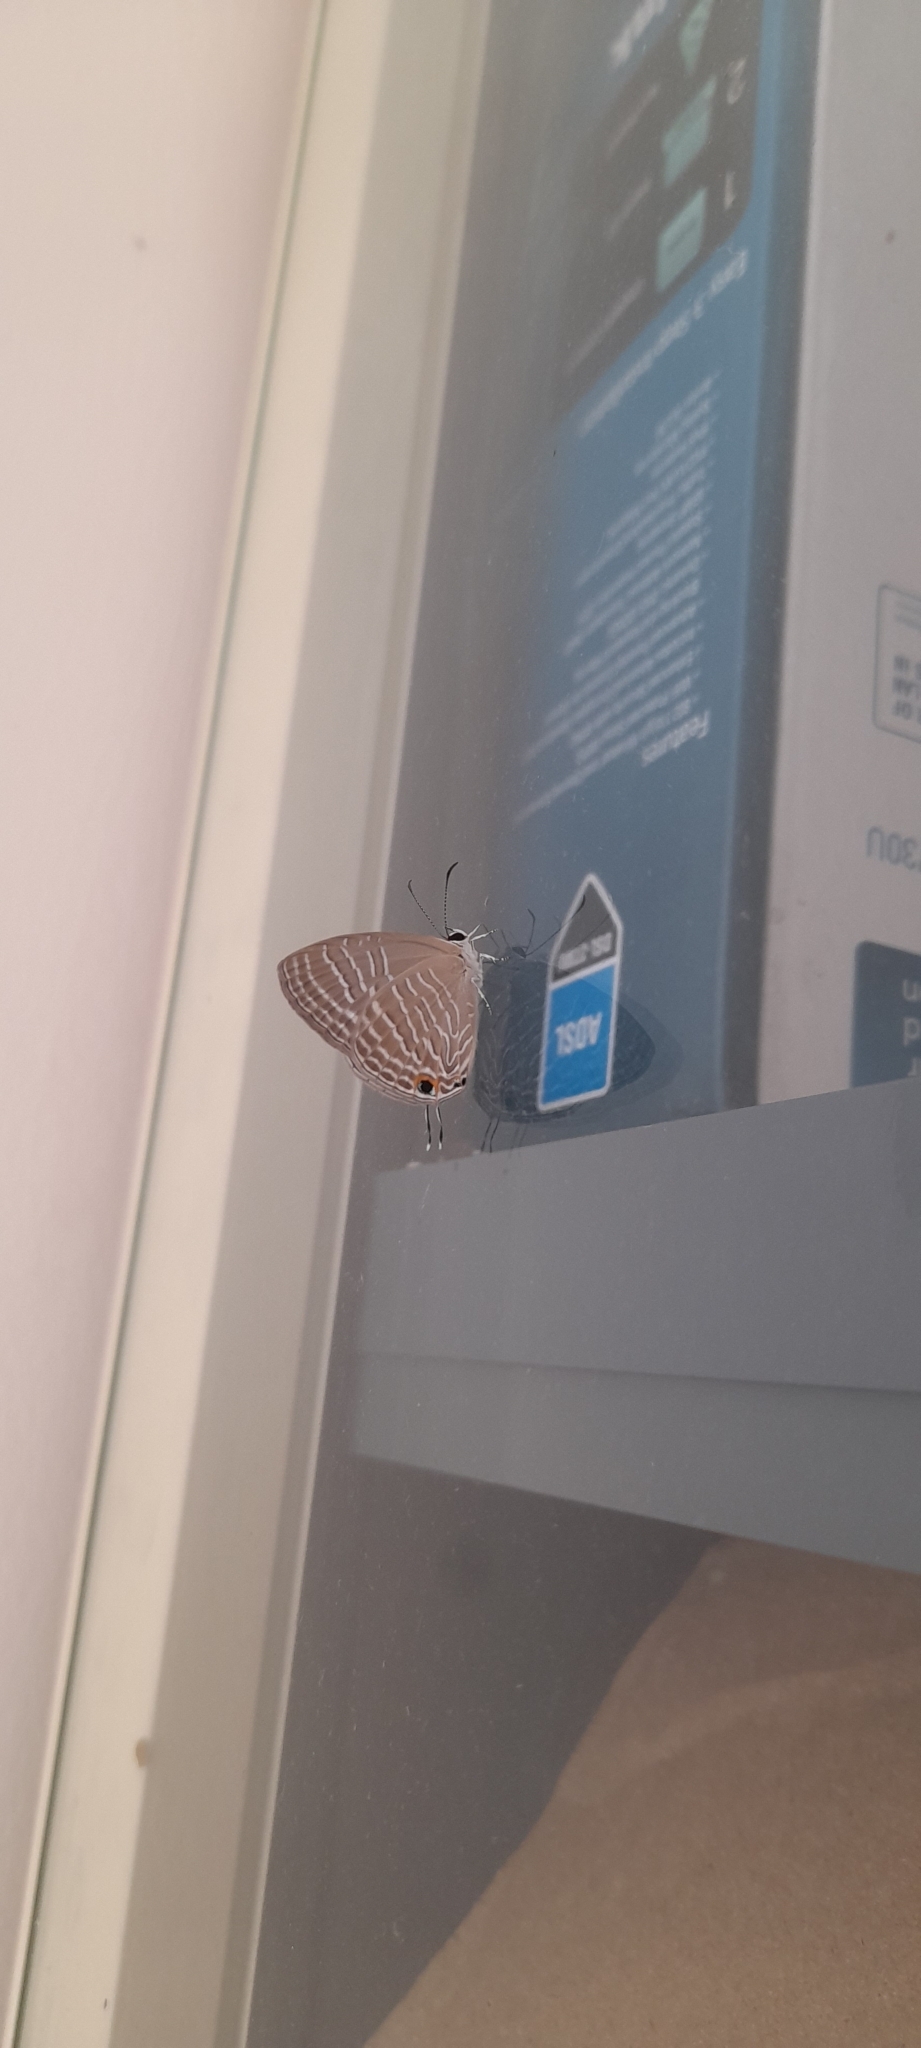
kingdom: Animalia
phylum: Arthropoda
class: Insecta
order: Lepidoptera
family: Lycaenidae
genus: Jamides
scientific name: Jamides celeno
